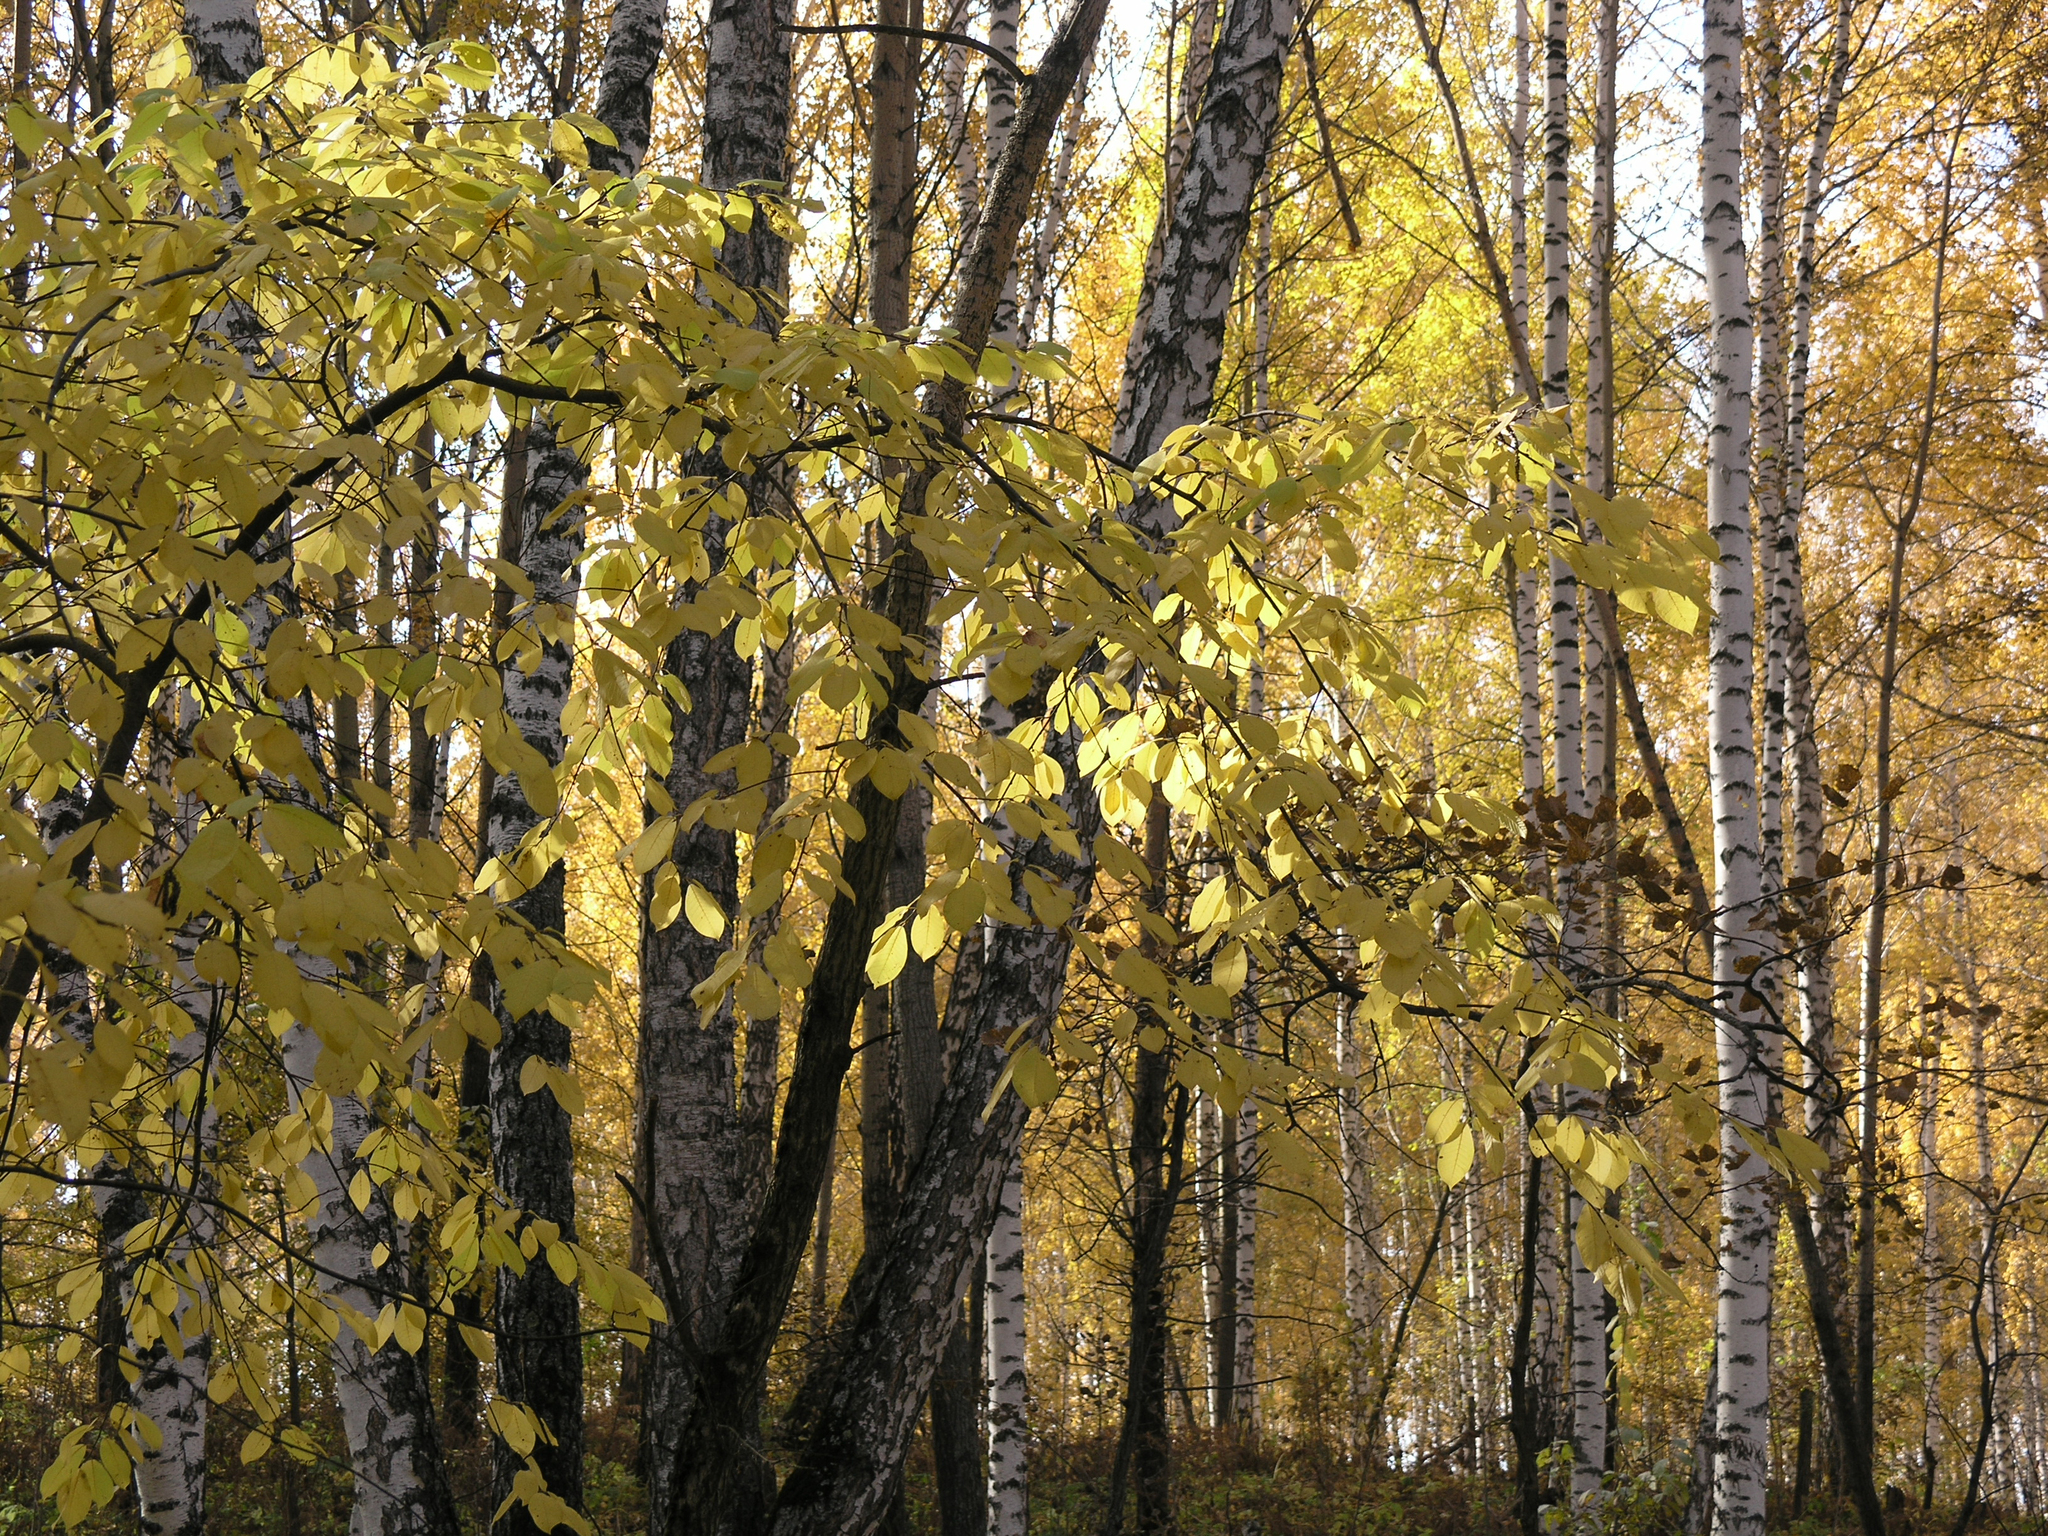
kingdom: Plantae
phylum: Tracheophyta
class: Magnoliopsida
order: Rosales
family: Rosaceae
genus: Prunus
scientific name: Prunus padus
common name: Bird cherry
